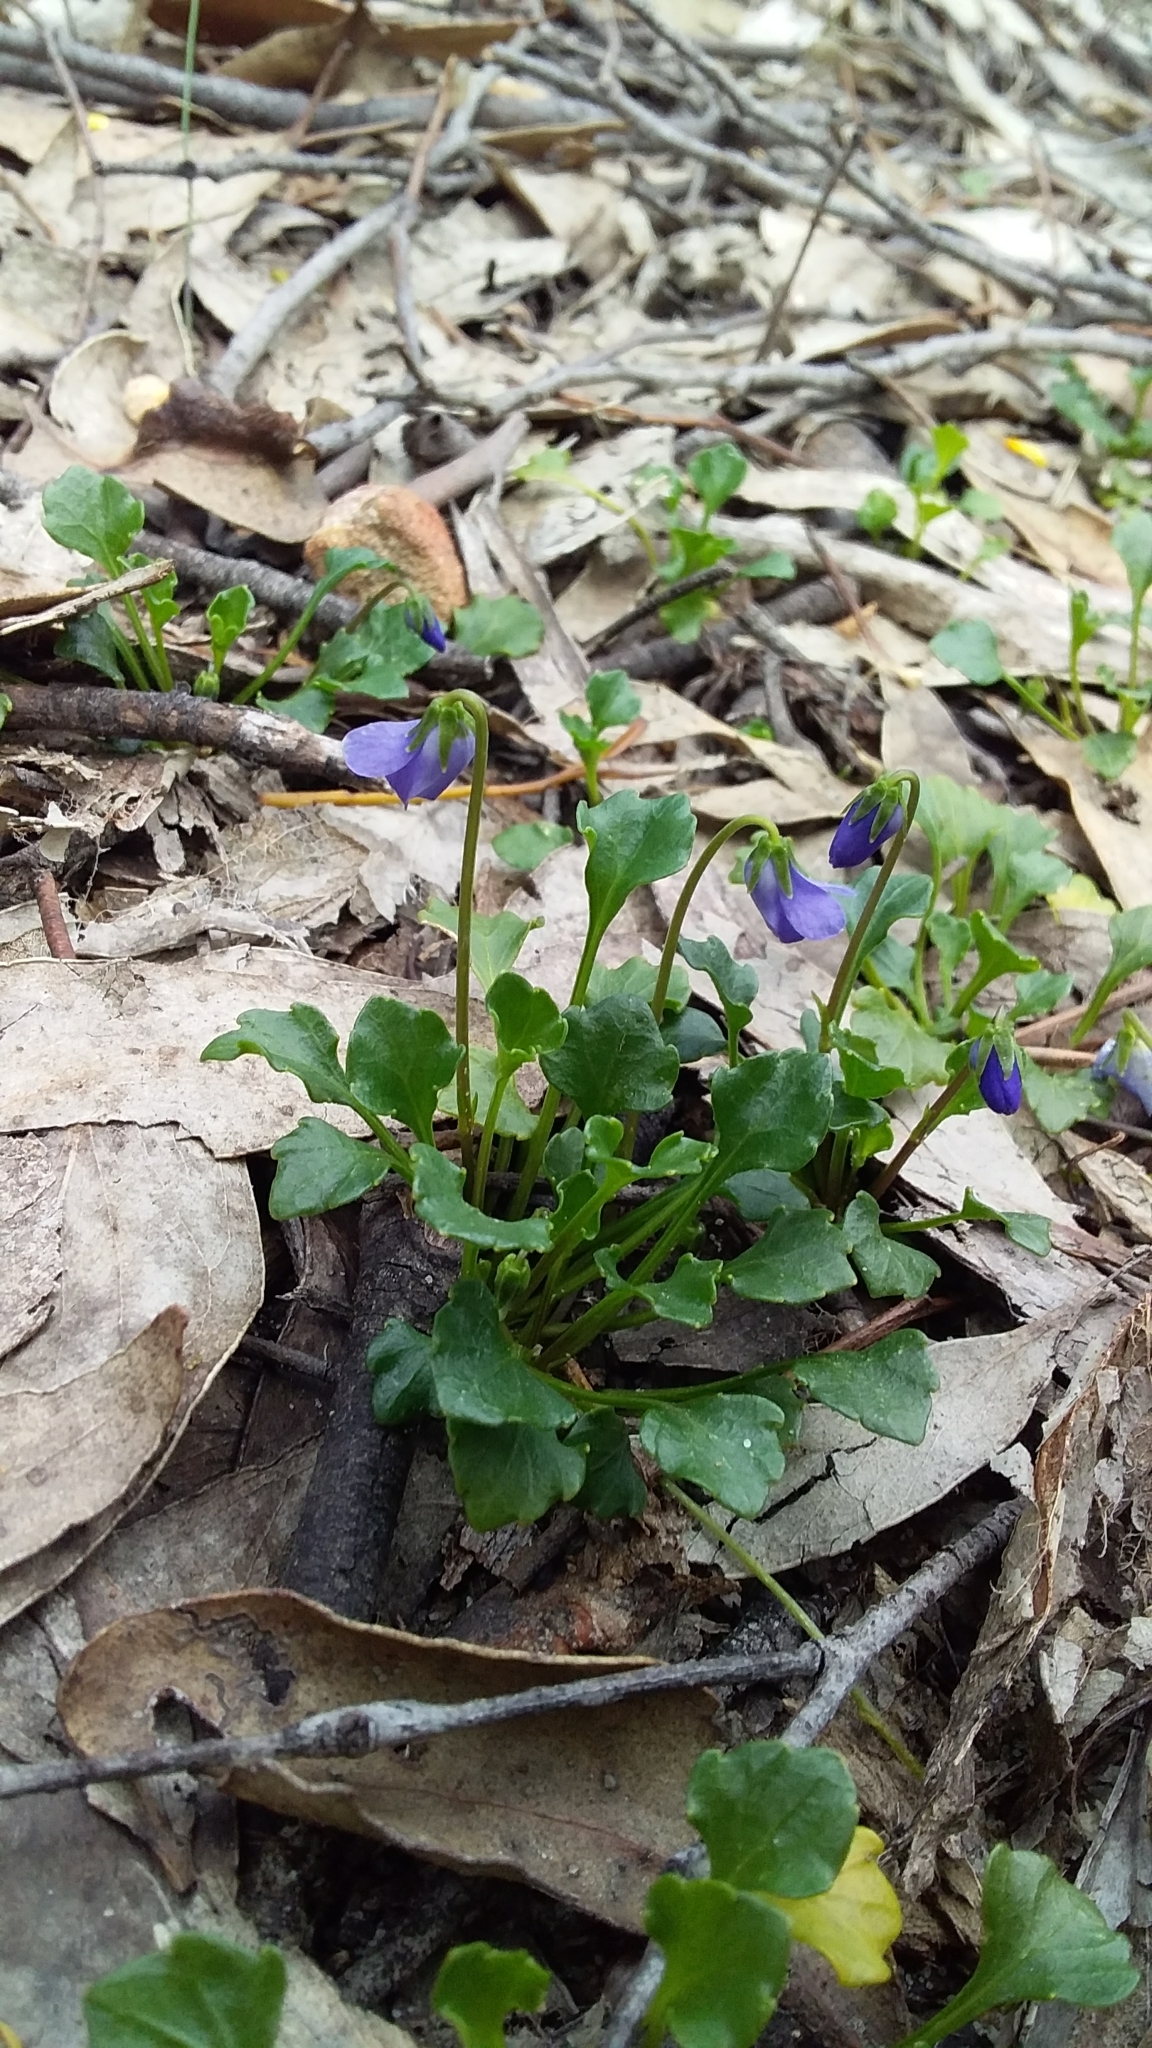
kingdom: Plantae
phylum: Tracheophyta
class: Magnoliopsida
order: Malpighiales
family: Violaceae
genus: Viola
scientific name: Viola sieberiana
